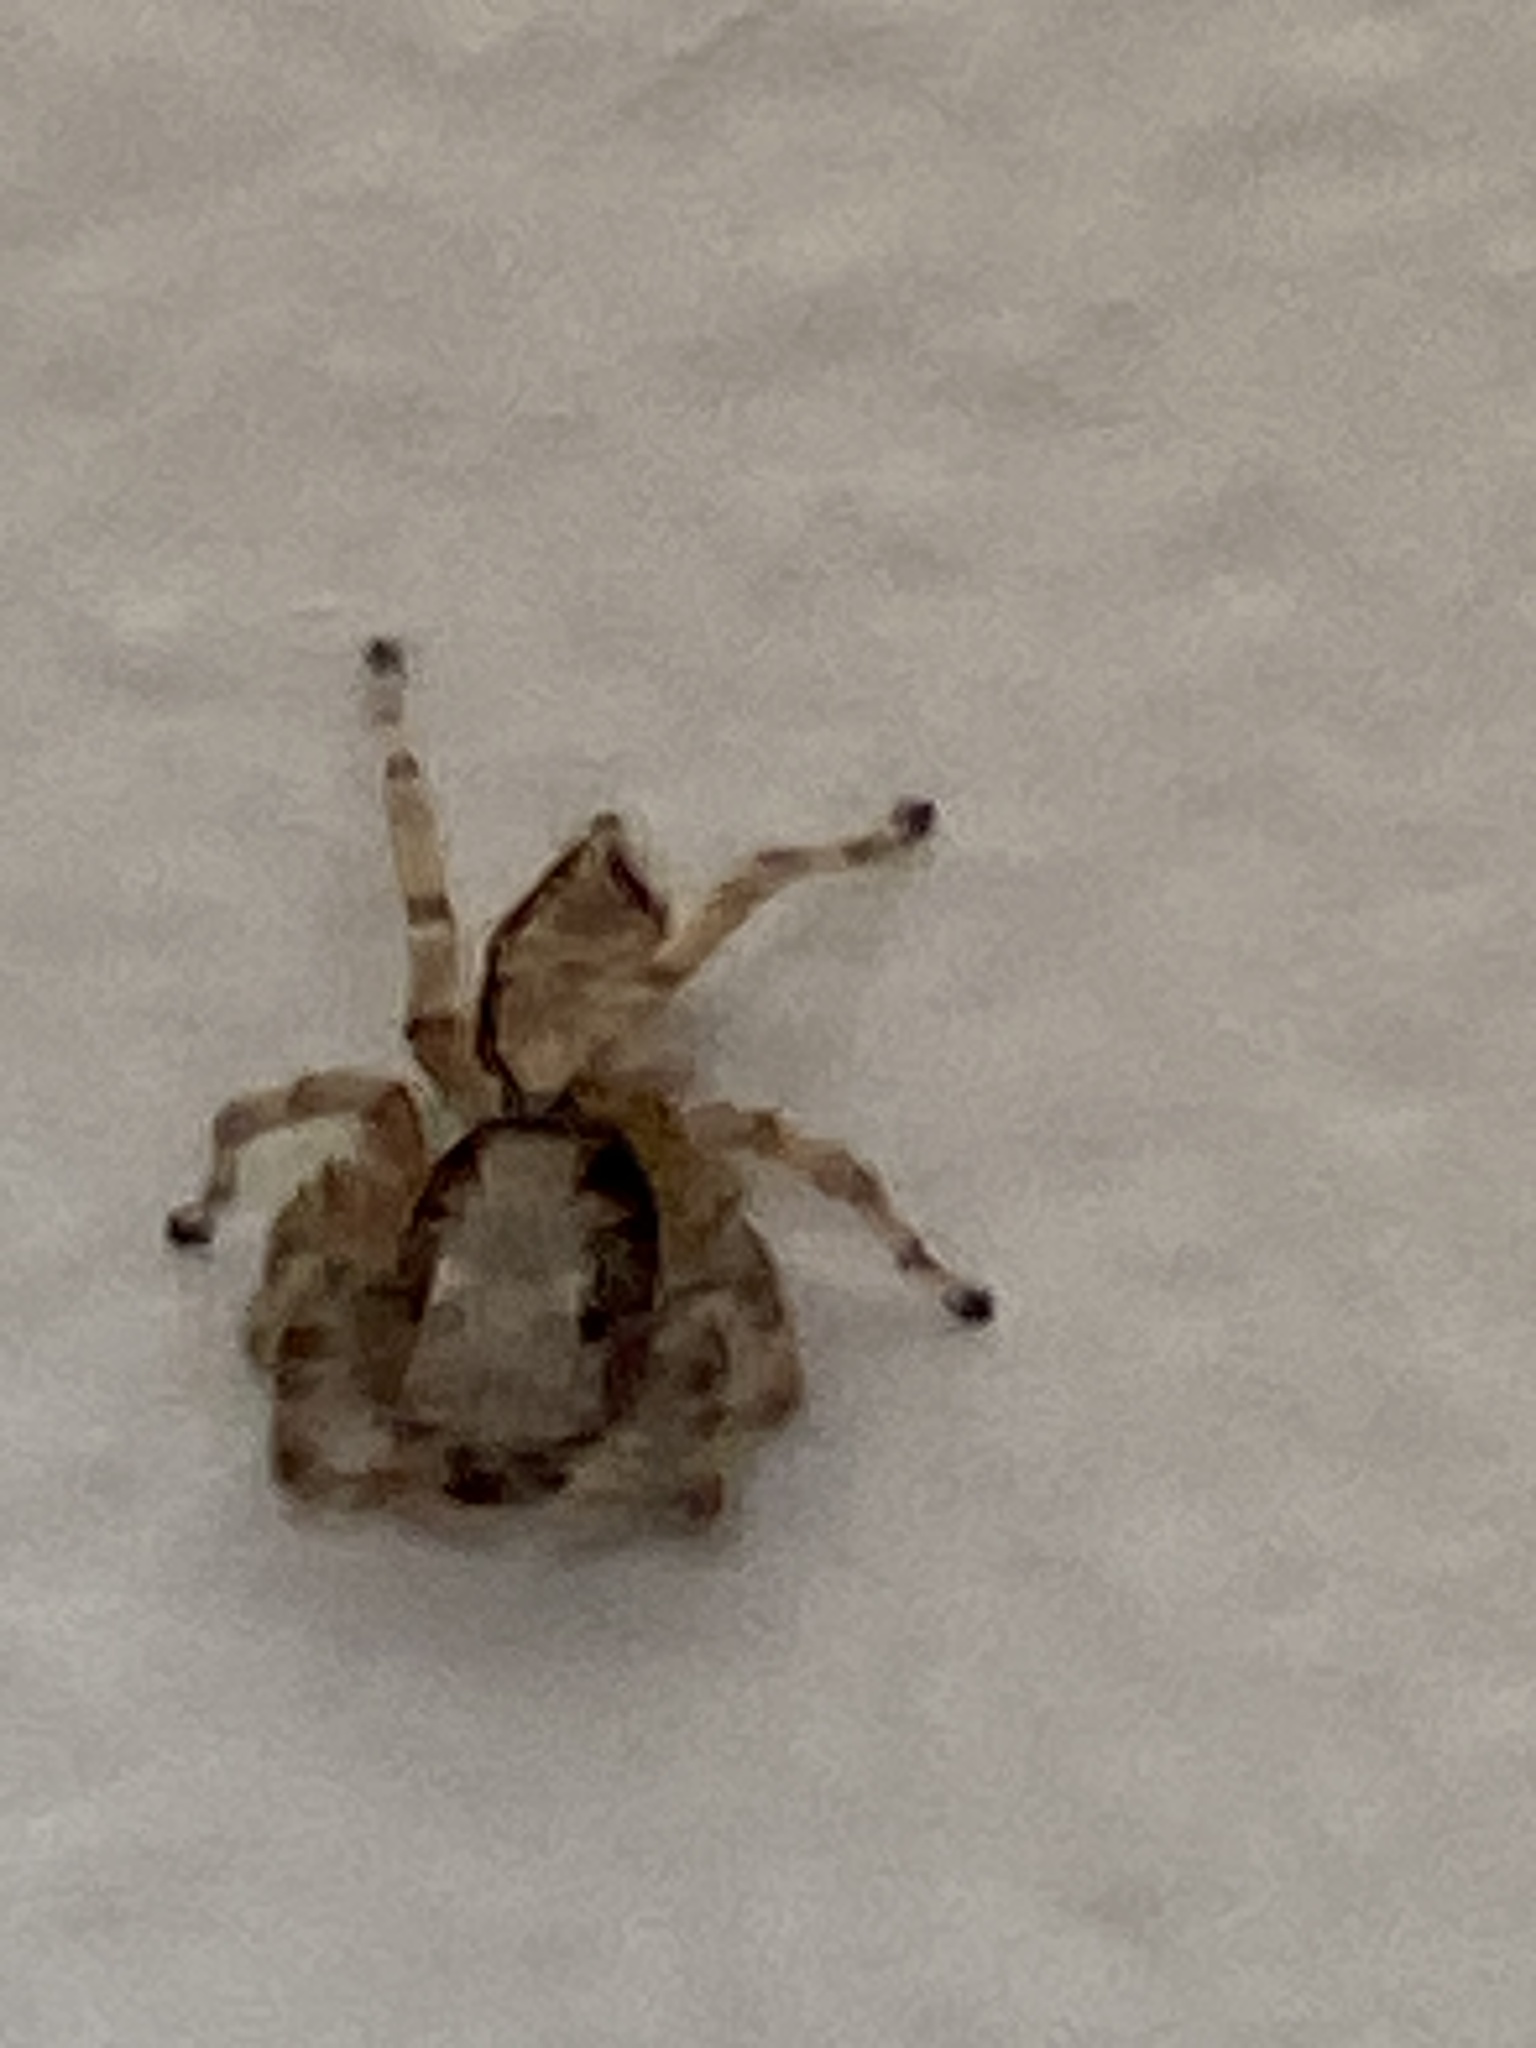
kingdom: Animalia
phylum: Arthropoda
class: Arachnida
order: Araneae
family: Salticidae
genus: Menemerus
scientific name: Menemerus bivittatus
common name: Gray wall jumper
